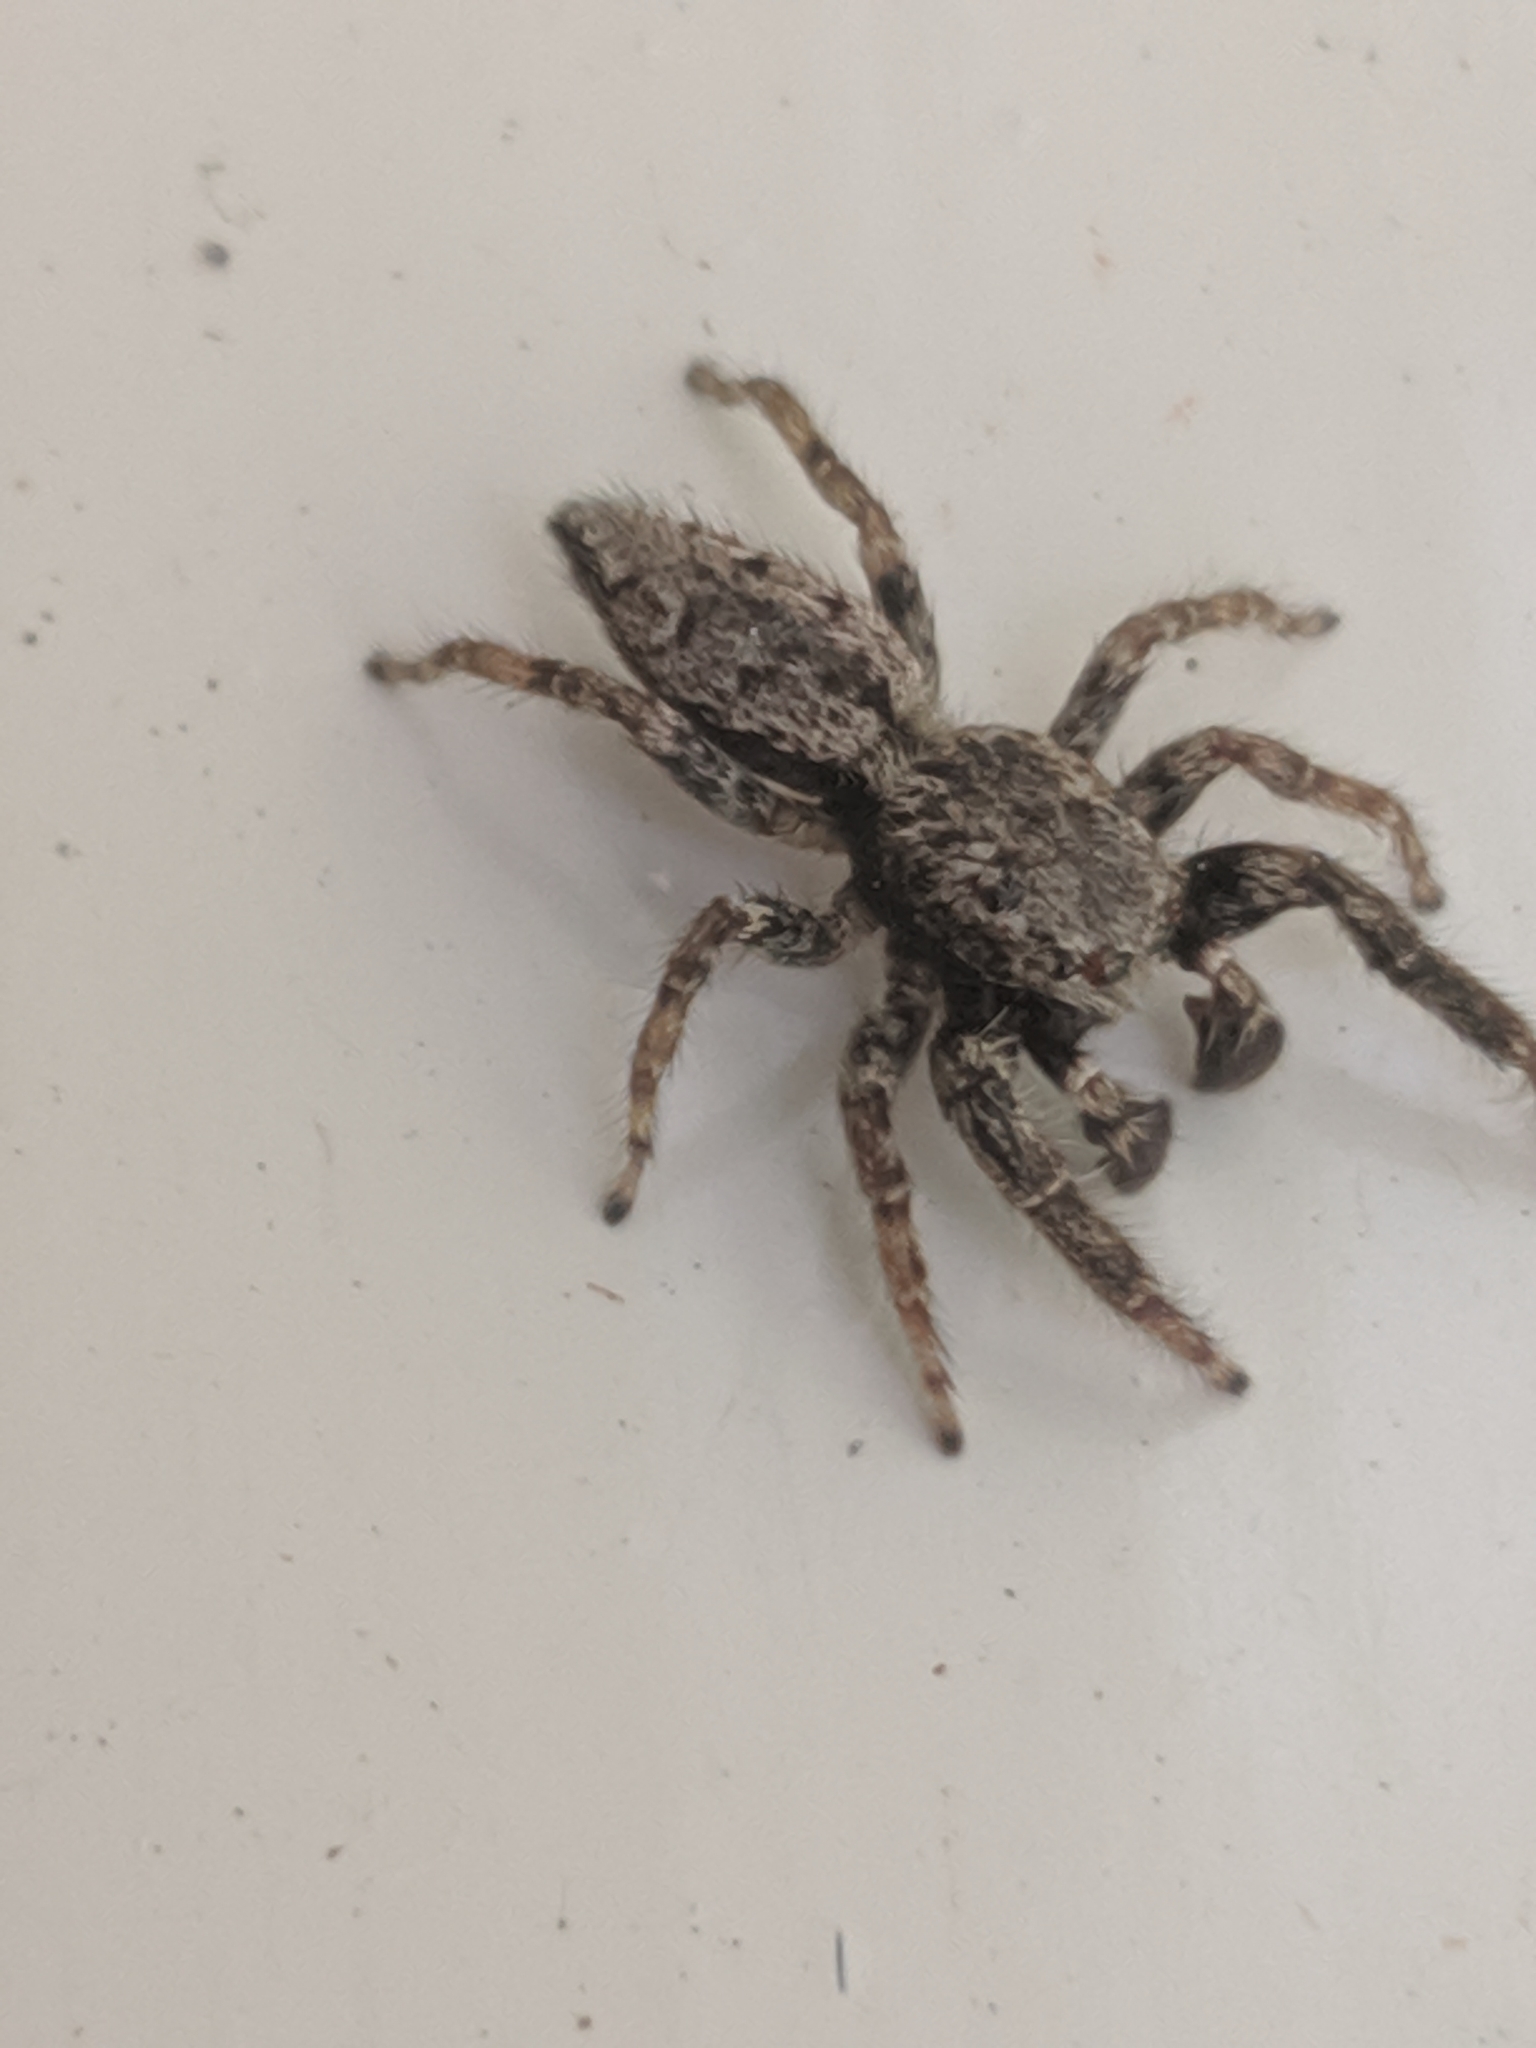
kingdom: Animalia
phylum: Arthropoda
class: Arachnida
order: Araneae
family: Salticidae
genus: Marpissa
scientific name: Marpissa muscosa
